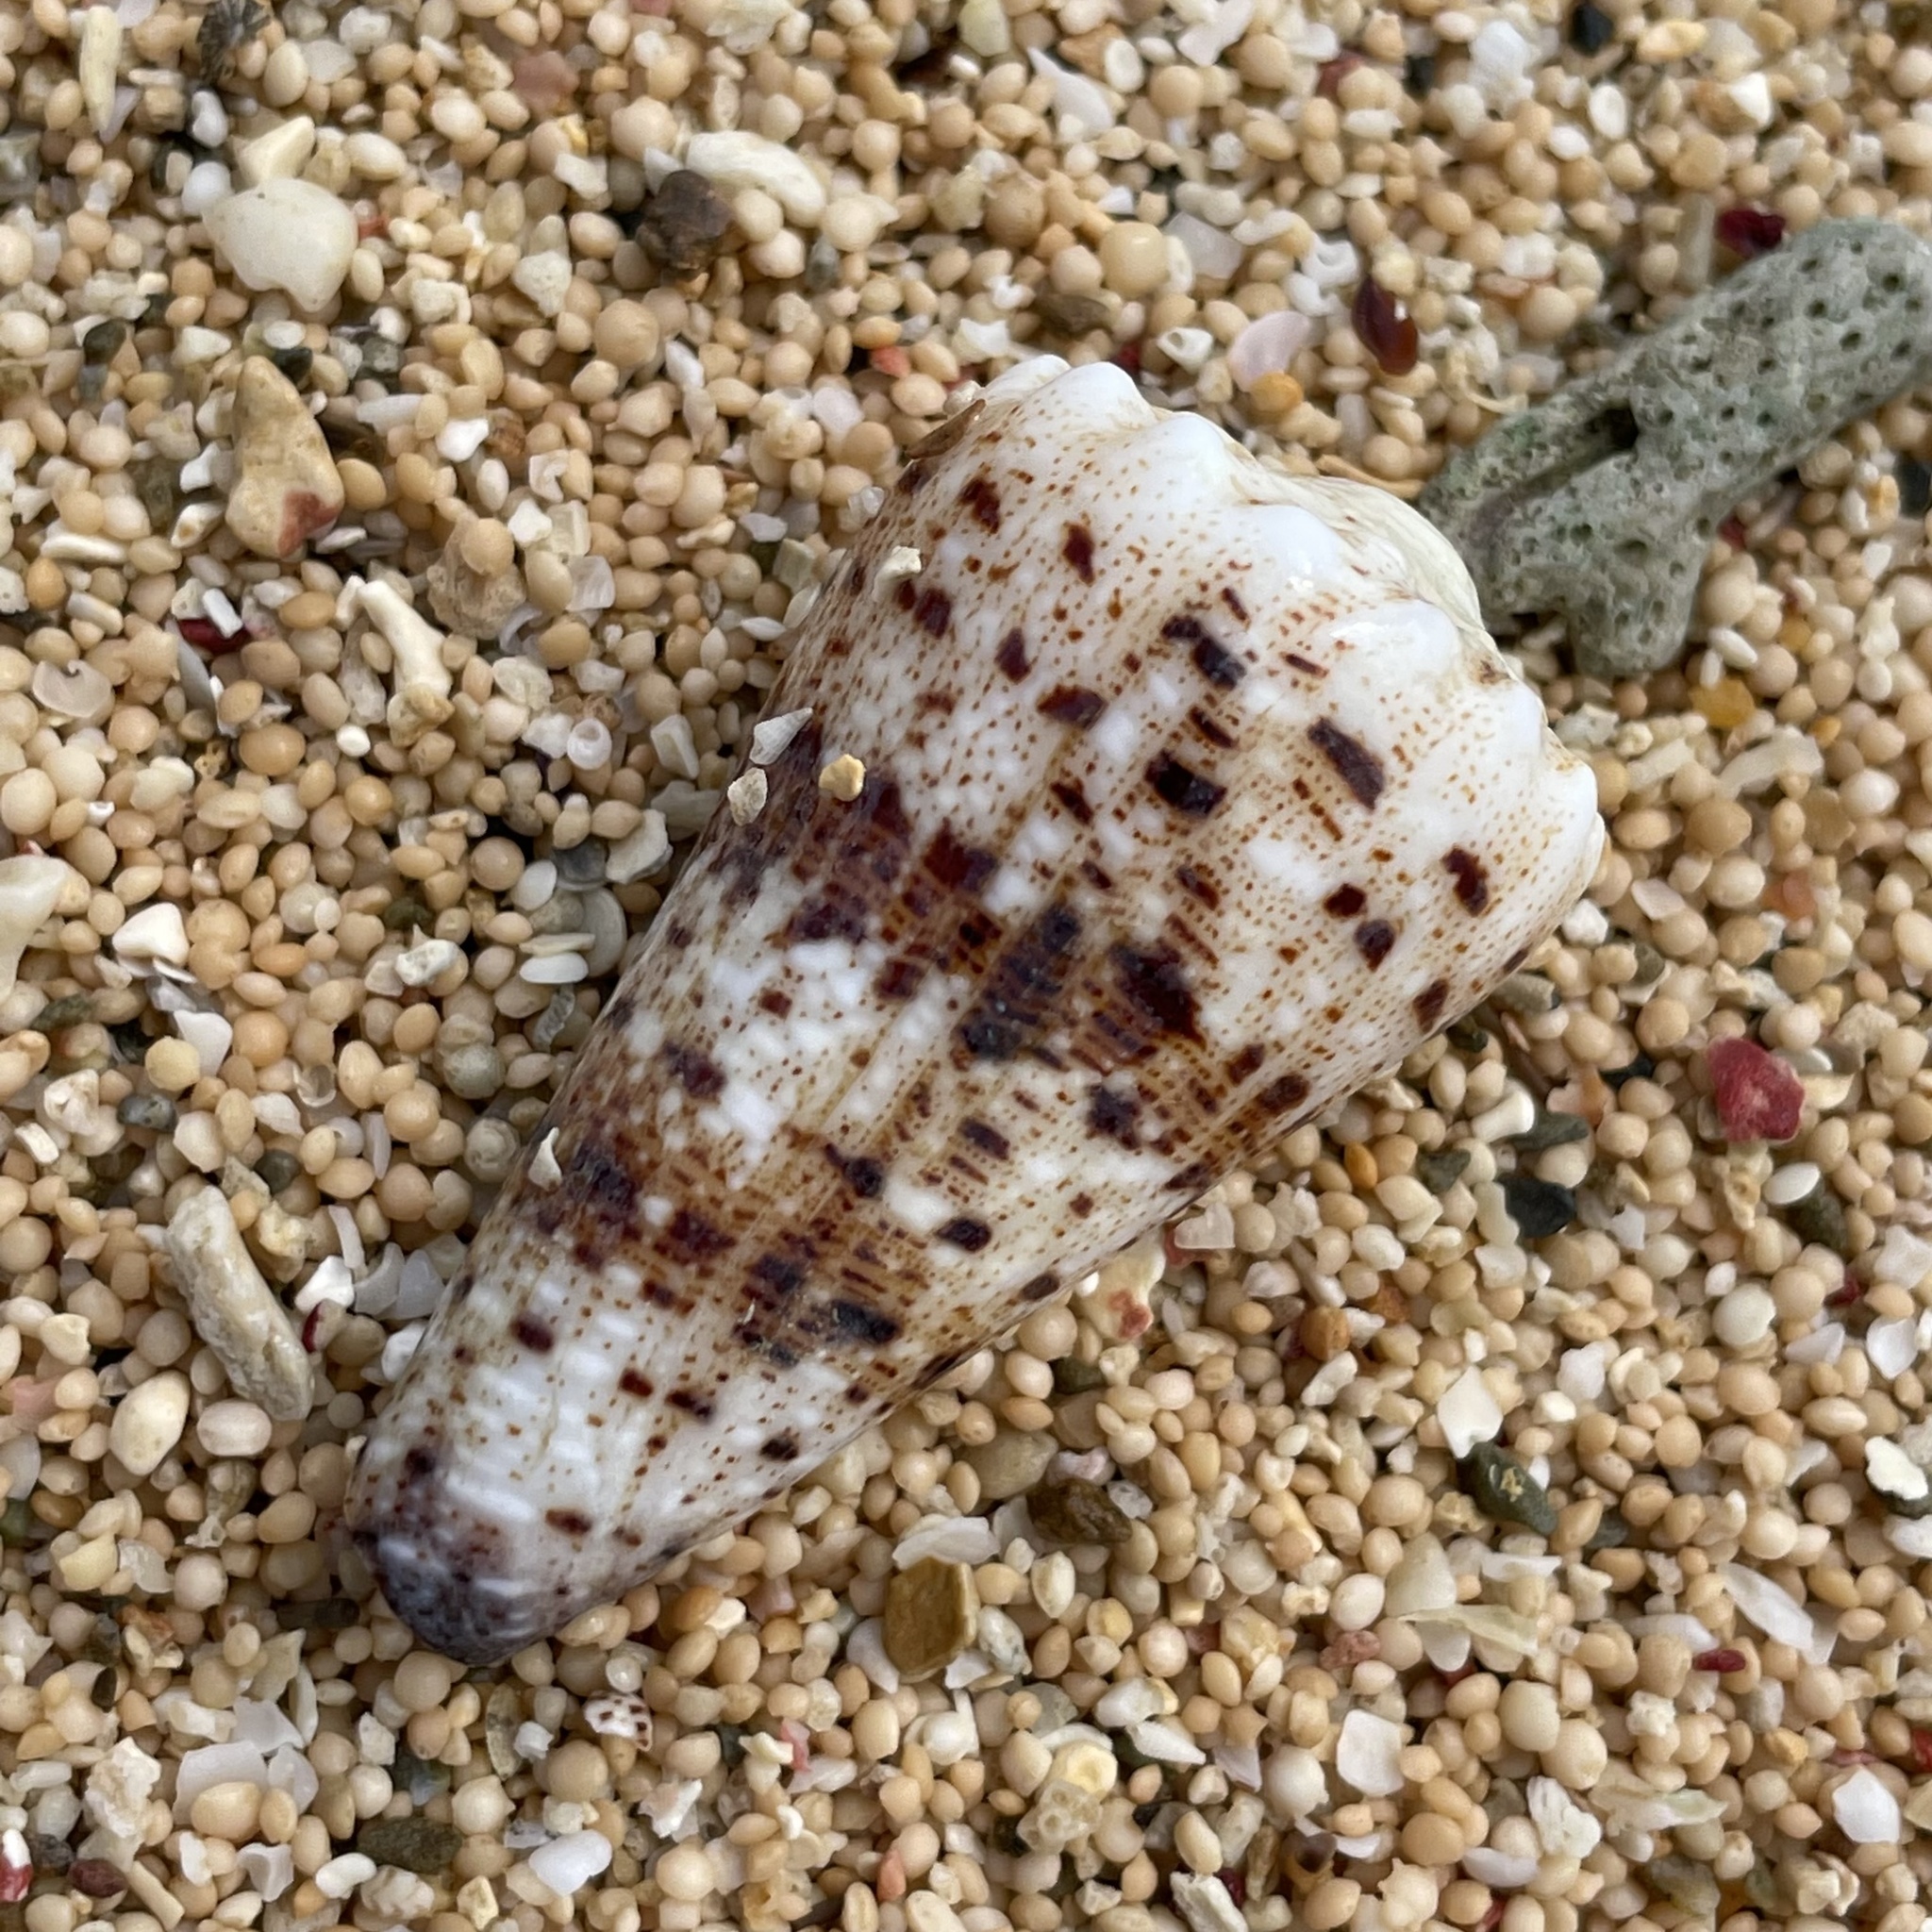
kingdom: Animalia
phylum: Mollusca
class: Gastropoda
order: Neogastropoda
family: Conidae
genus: Conus
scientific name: Conus imperialis
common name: Imperial cone
